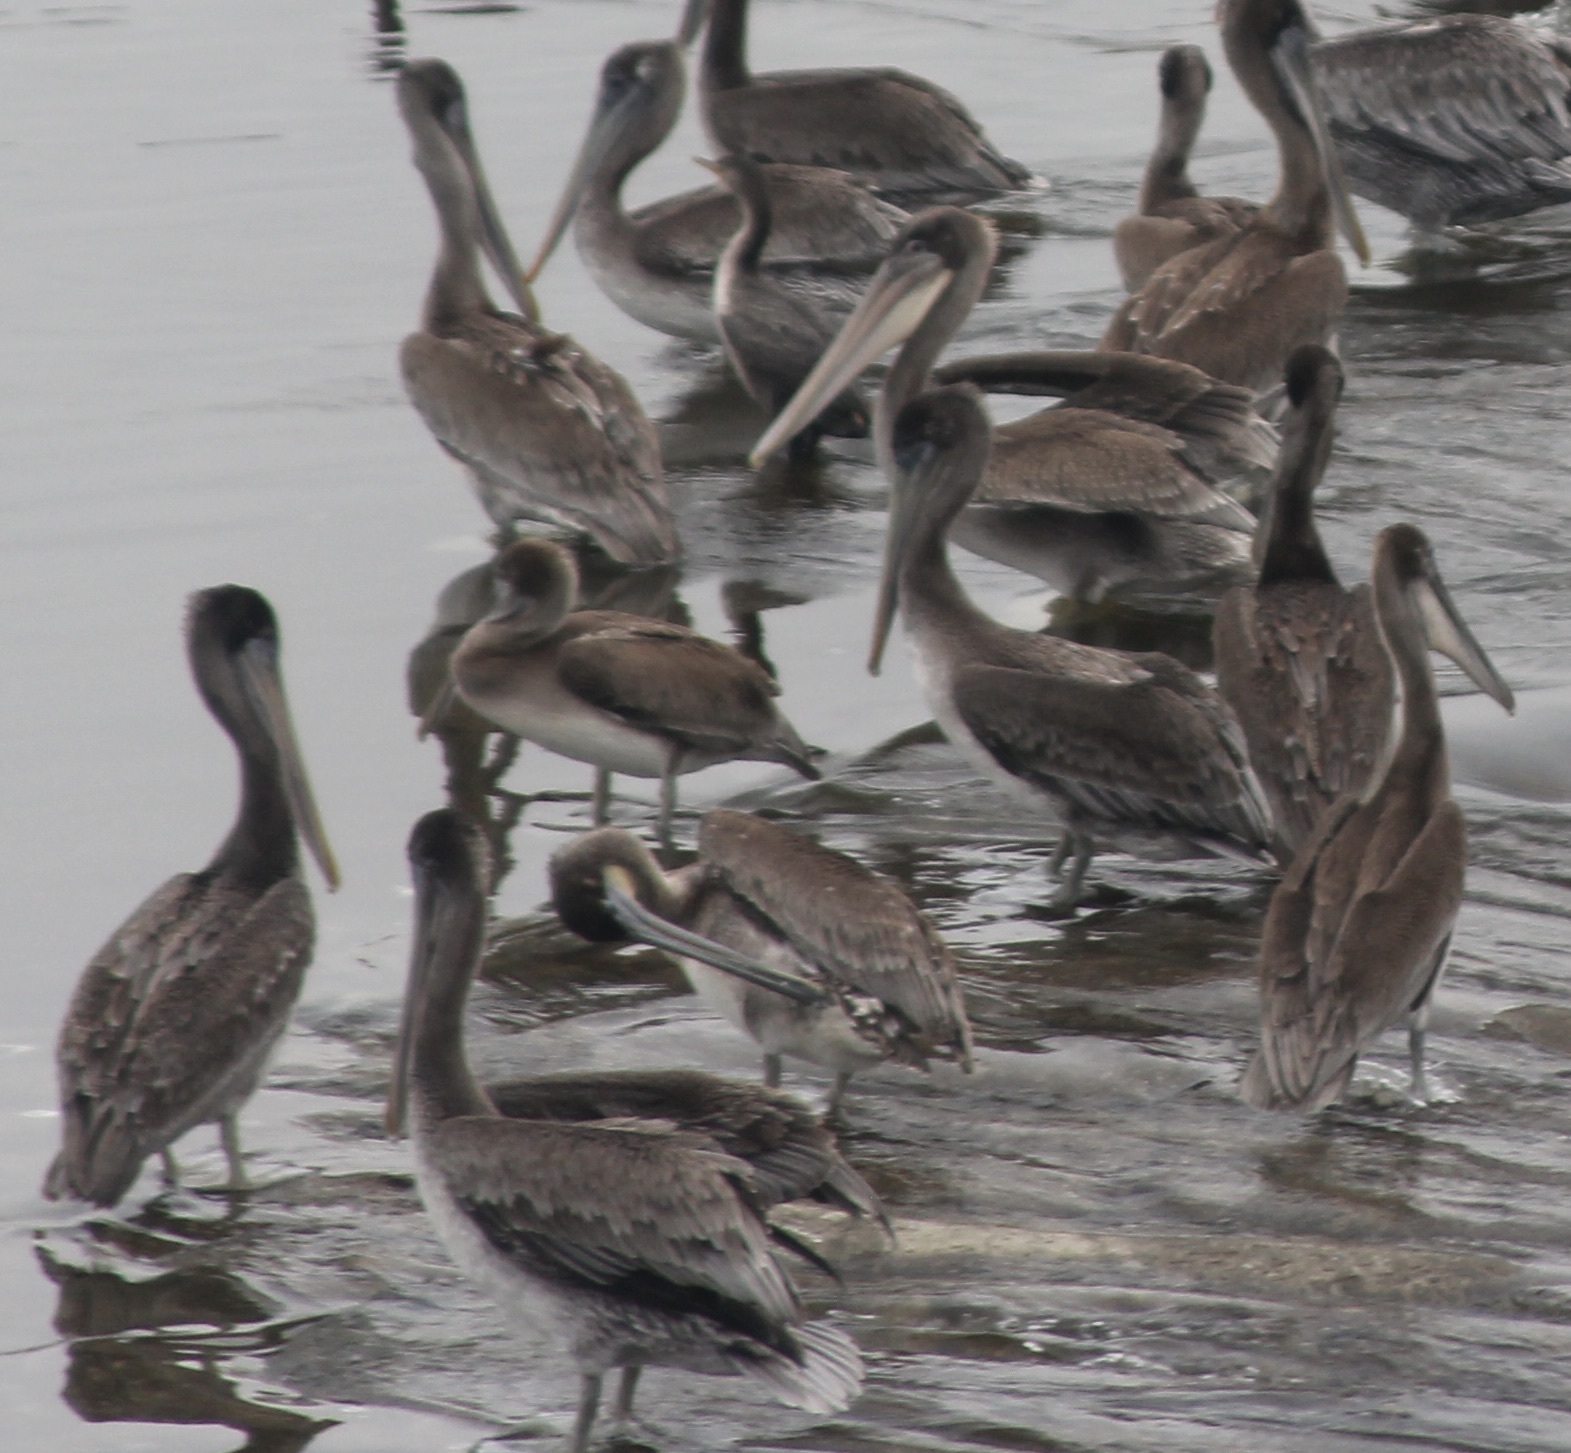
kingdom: Animalia
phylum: Chordata
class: Aves
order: Pelecaniformes
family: Pelecanidae
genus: Pelecanus
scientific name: Pelecanus occidentalis
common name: Brown pelican
